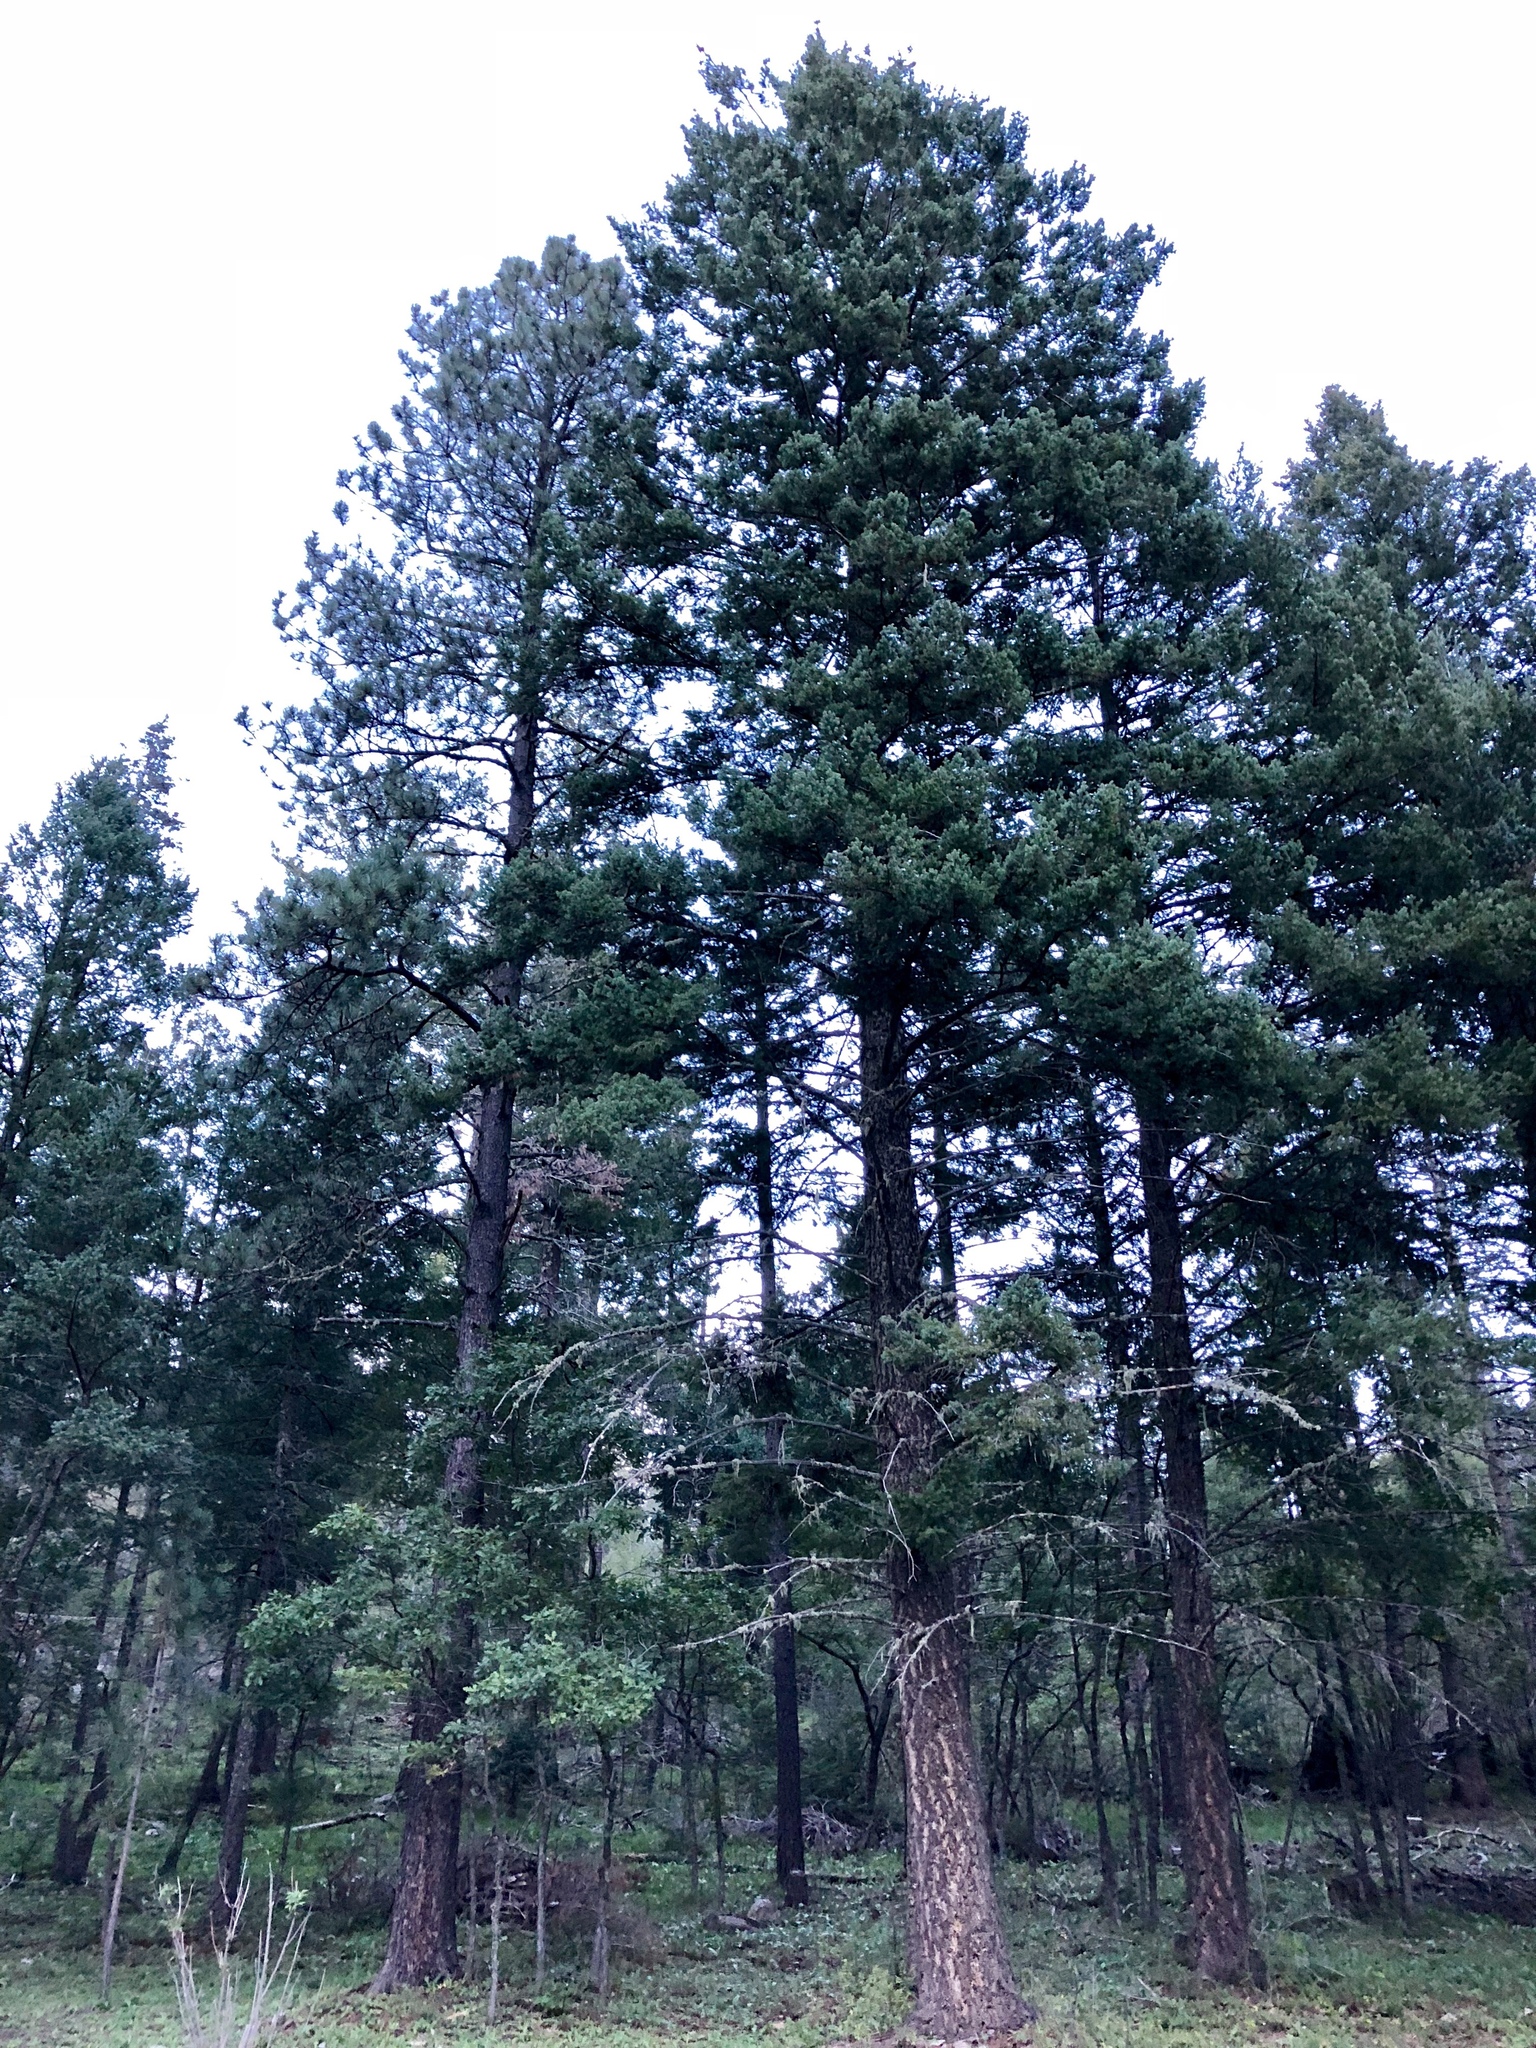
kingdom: Plantae
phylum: Tracheophyta
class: Pinopsida
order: Pinales
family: Pinaceae
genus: Pseudotsuga
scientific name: Pseudotsuga menziesii
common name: Douglas fir
